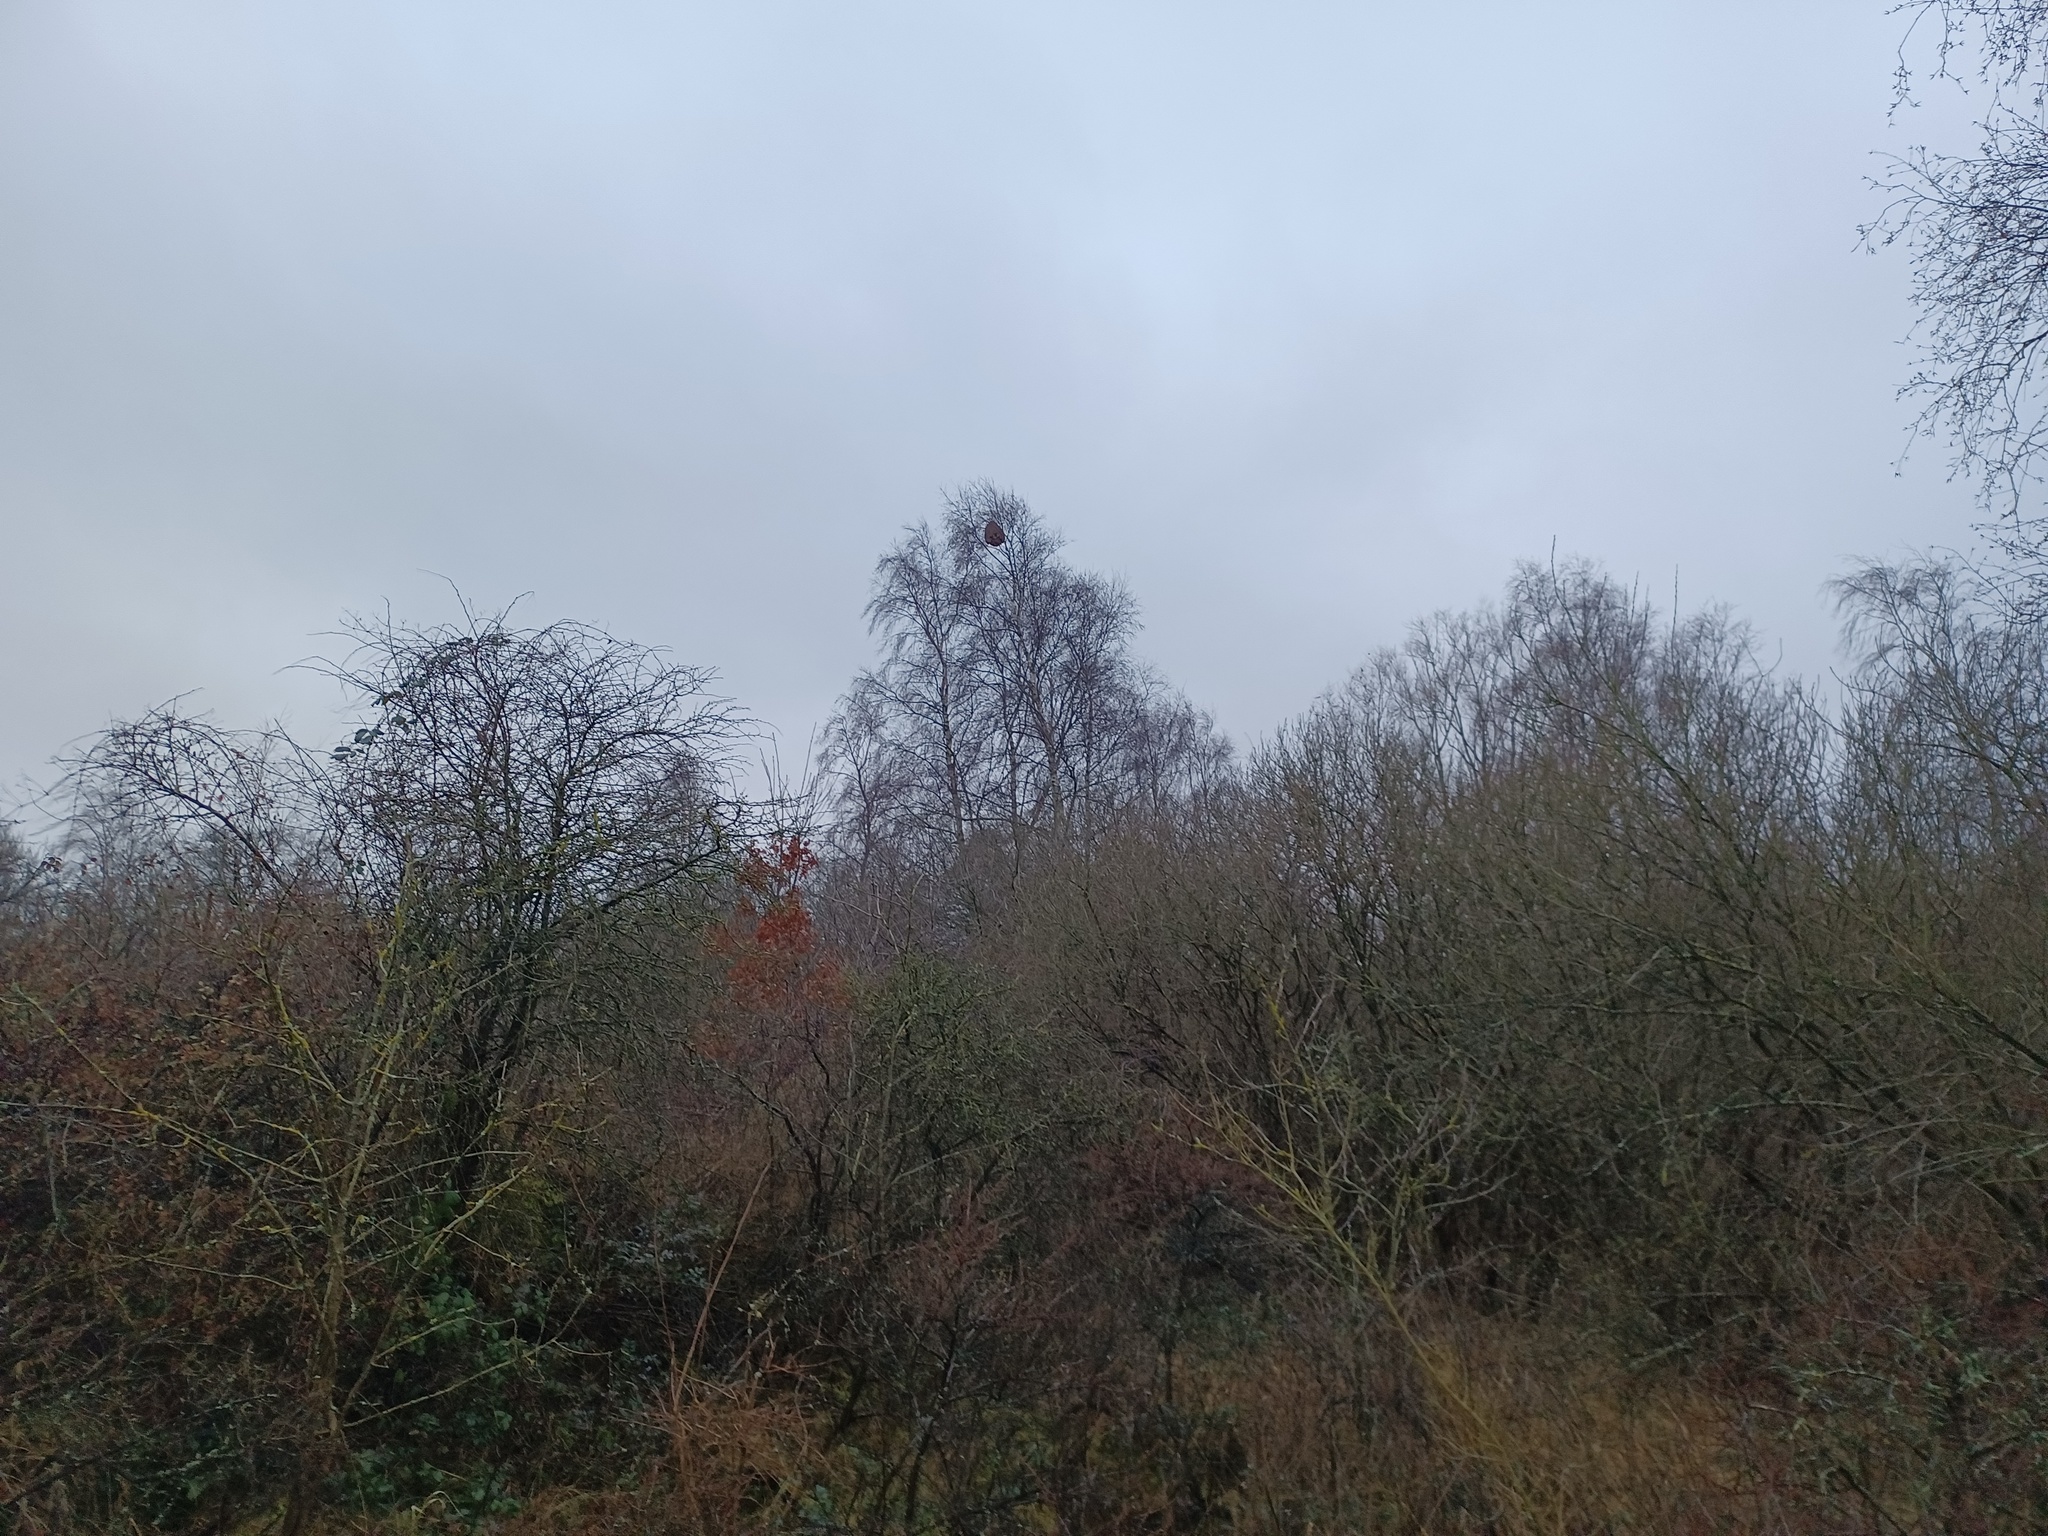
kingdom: Animalia
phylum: Arthropoda
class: Insecta
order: Hymenoptera
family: Vespidae
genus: Vespa
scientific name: Vespa velutina
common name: Asian hornet
